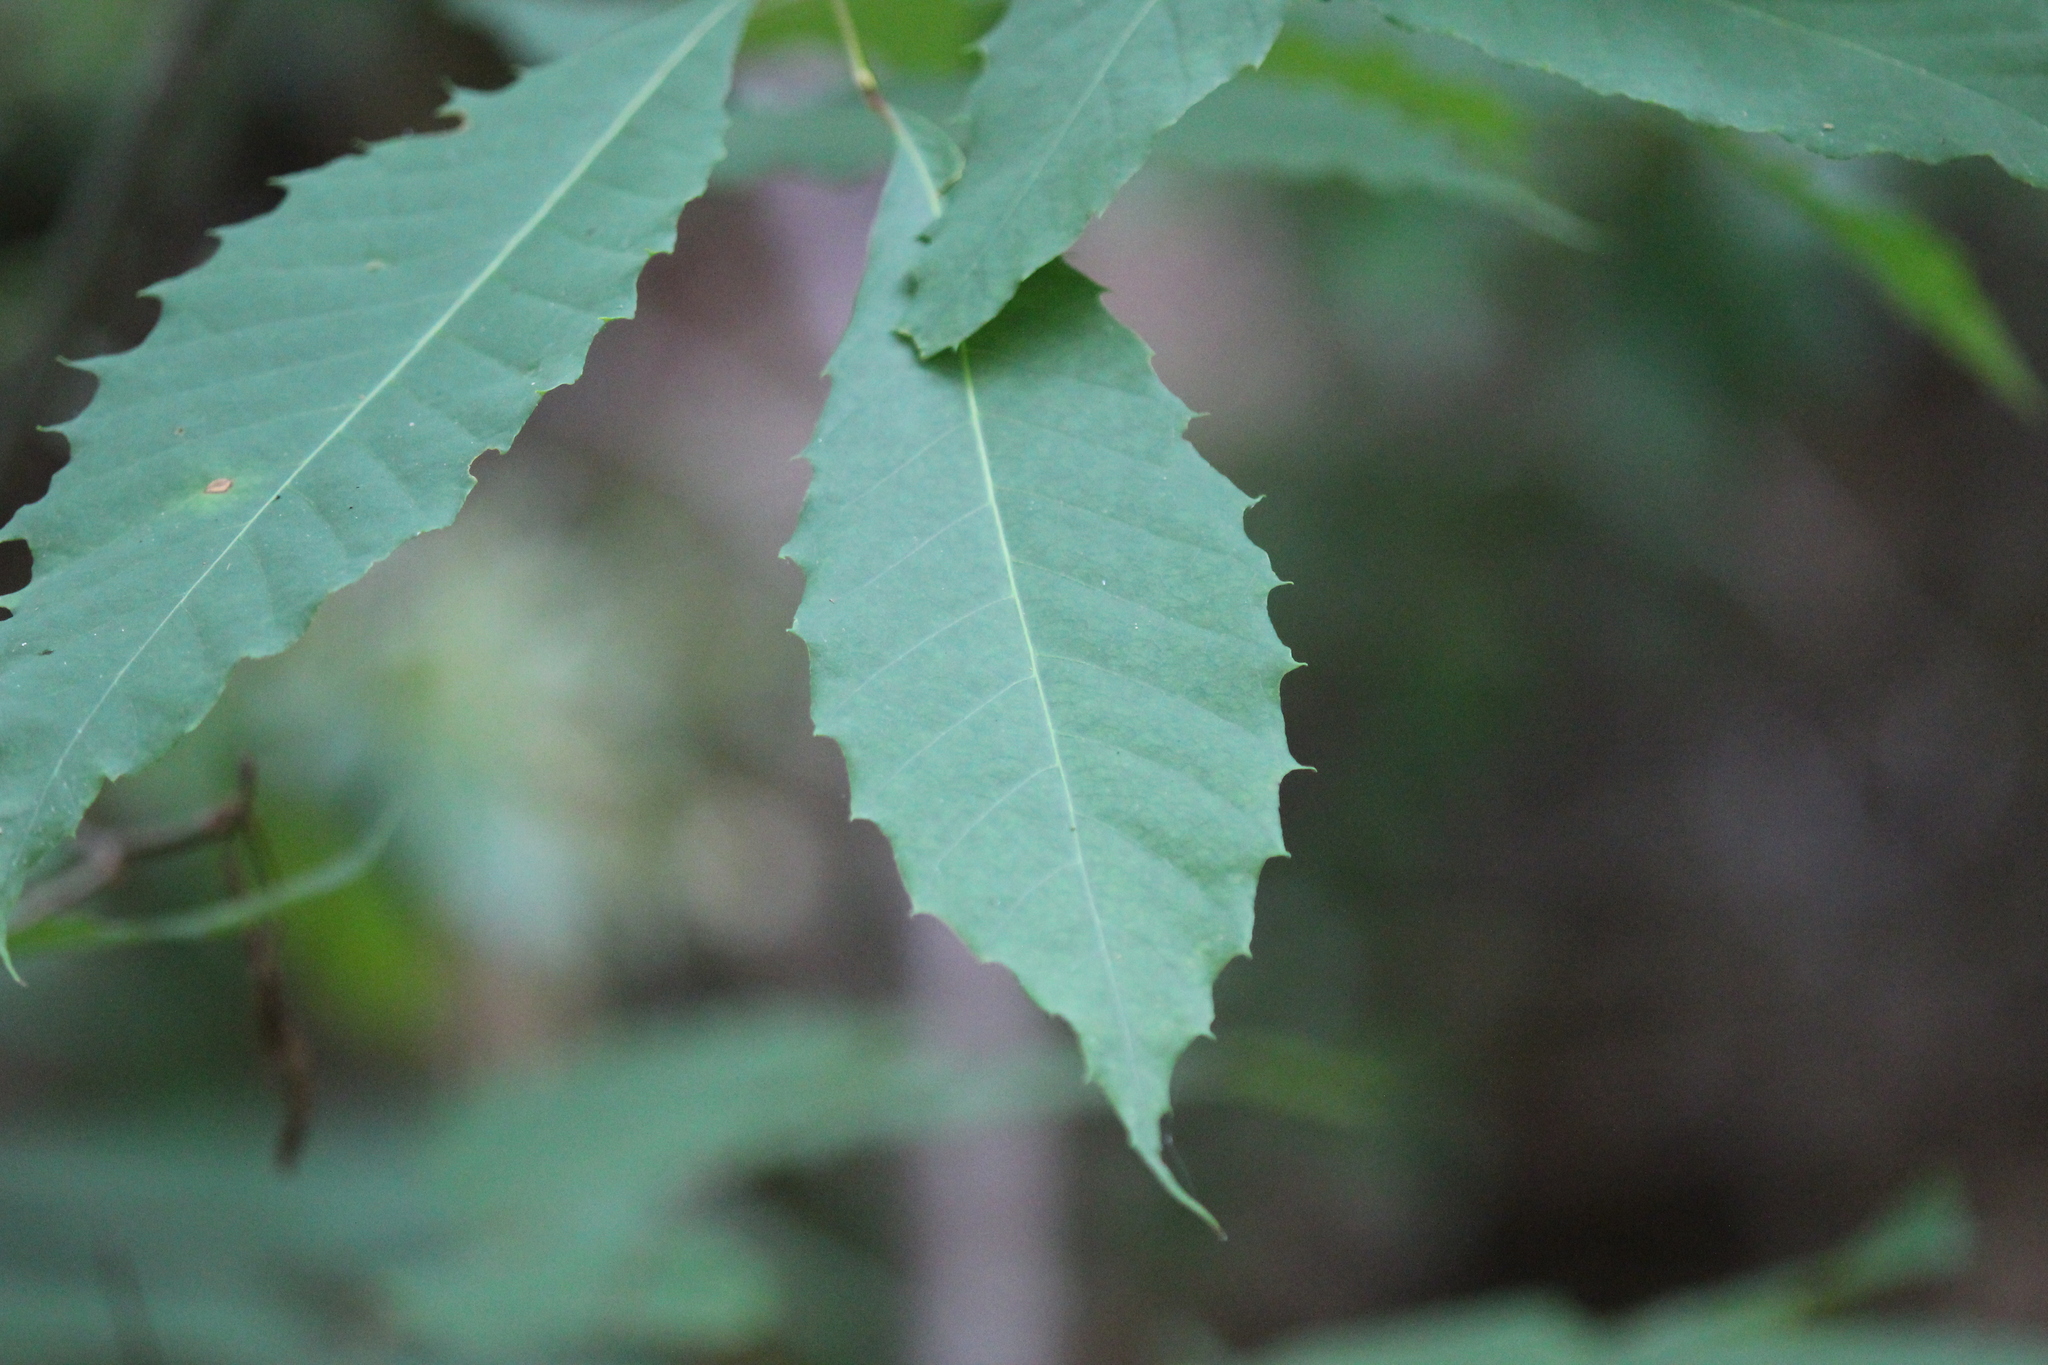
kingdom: Plantae
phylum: Tracheophyta
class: Magnoliopsida
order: Fagales
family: Fagaceae
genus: Castanea
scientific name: Castanea dentata
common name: American chestnut
